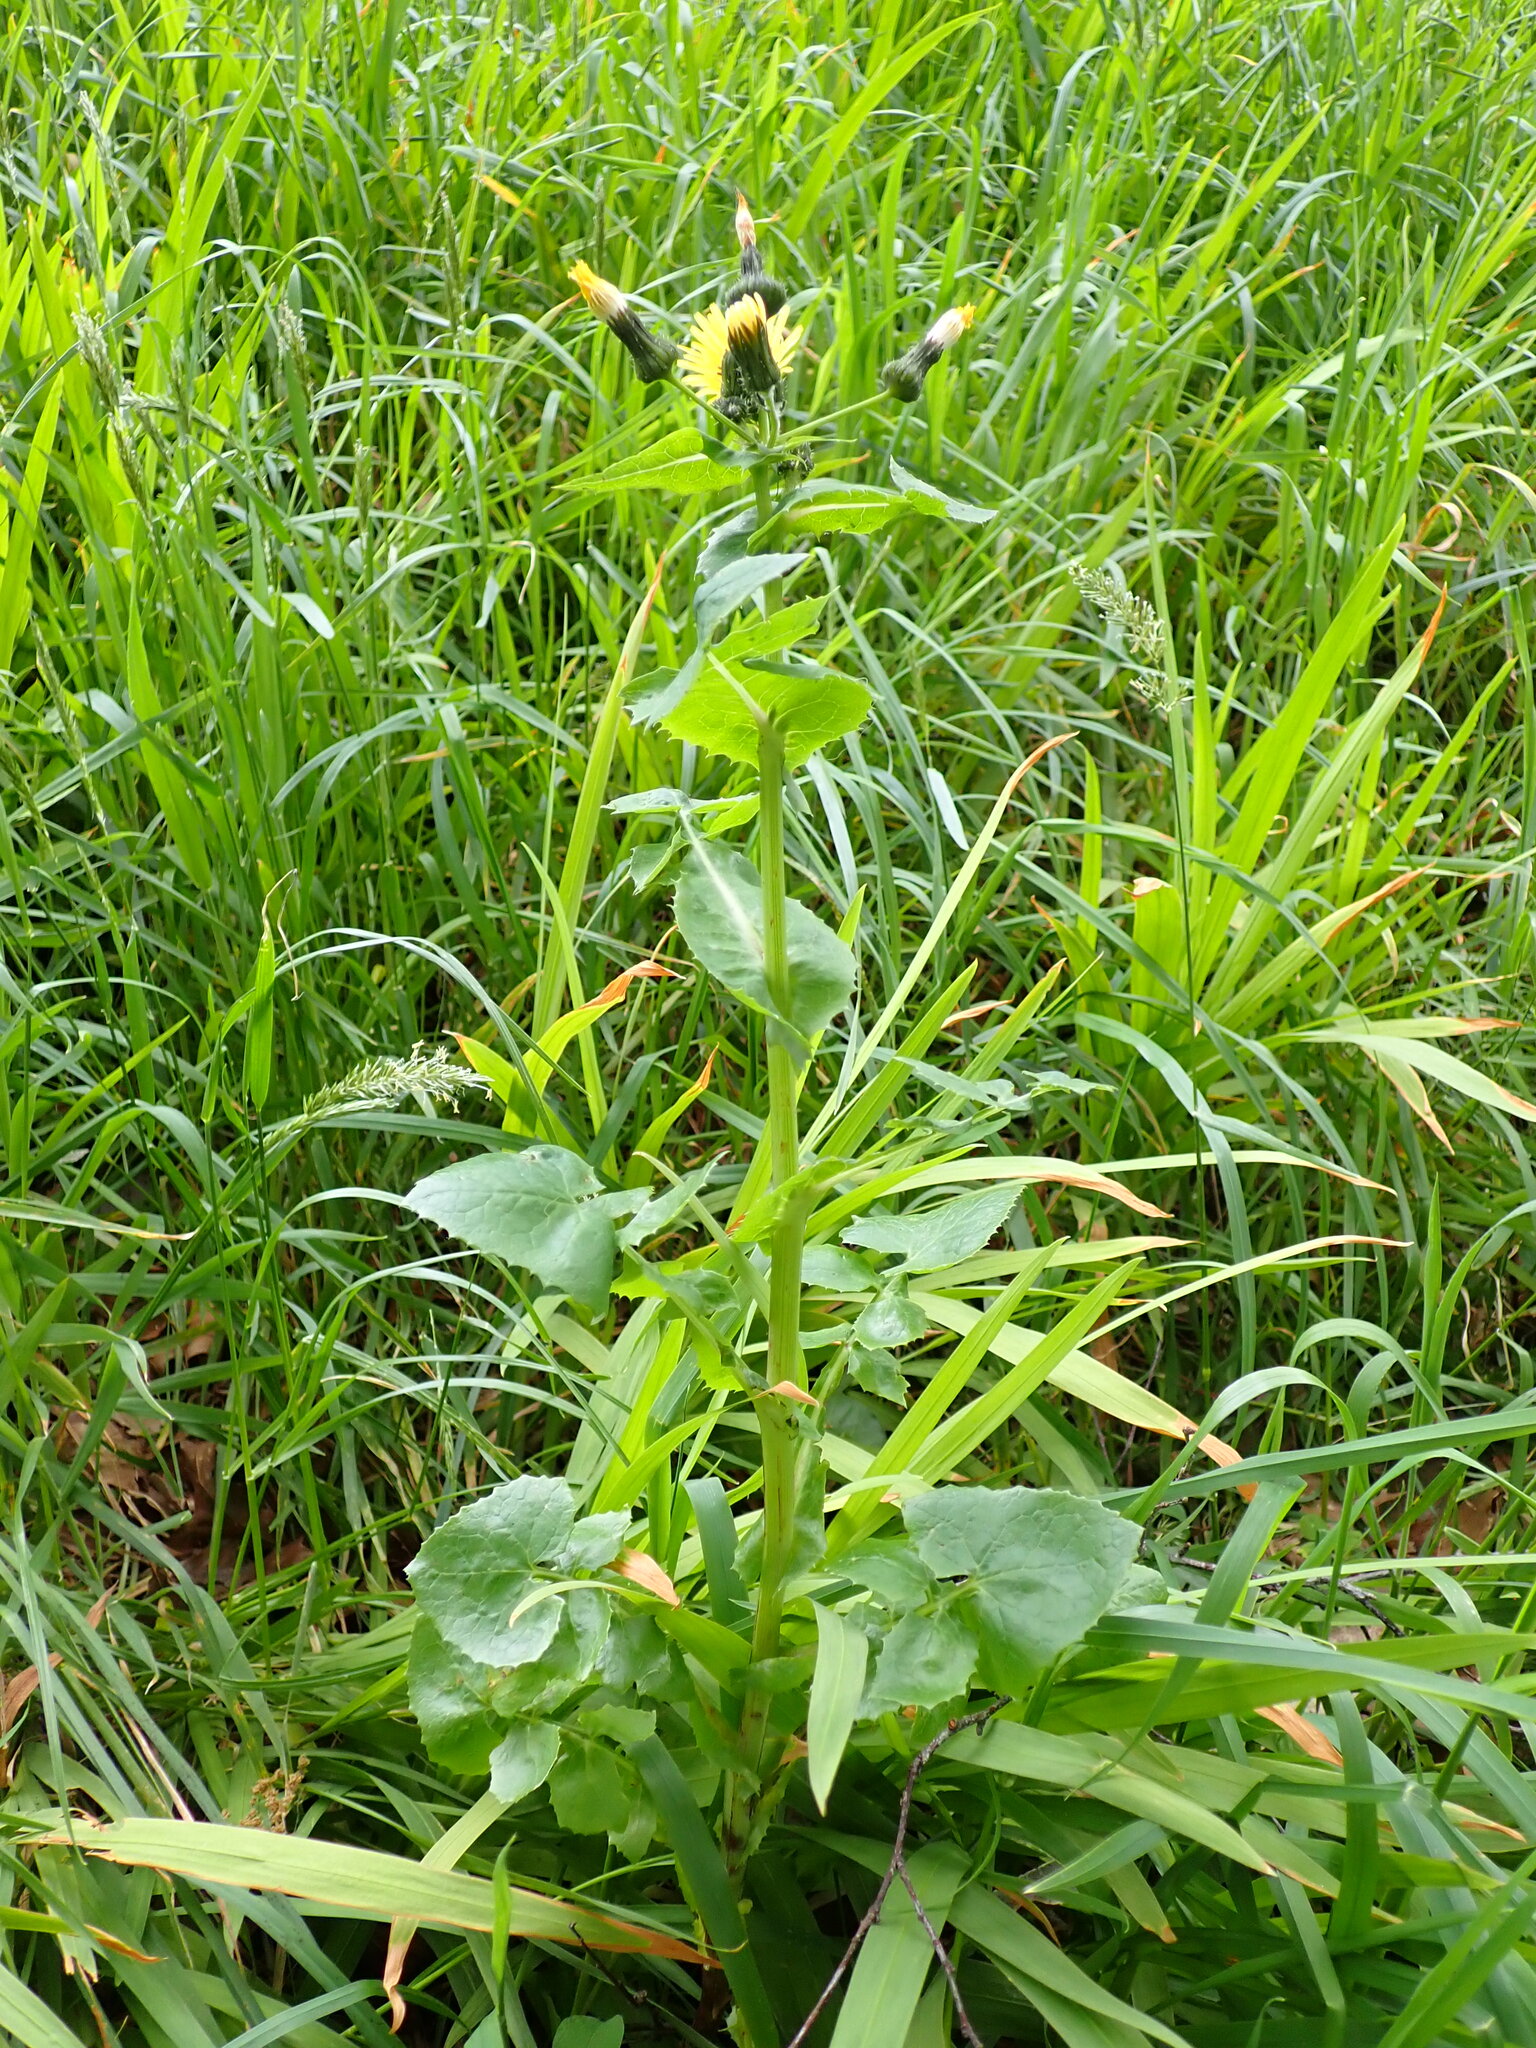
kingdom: Plantae
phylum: Tracheophyta
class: Magnoliopsida
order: Asterales
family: Asteraceae
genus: Sonchus
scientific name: Sonchus oleraceus
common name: Common sowthistle
